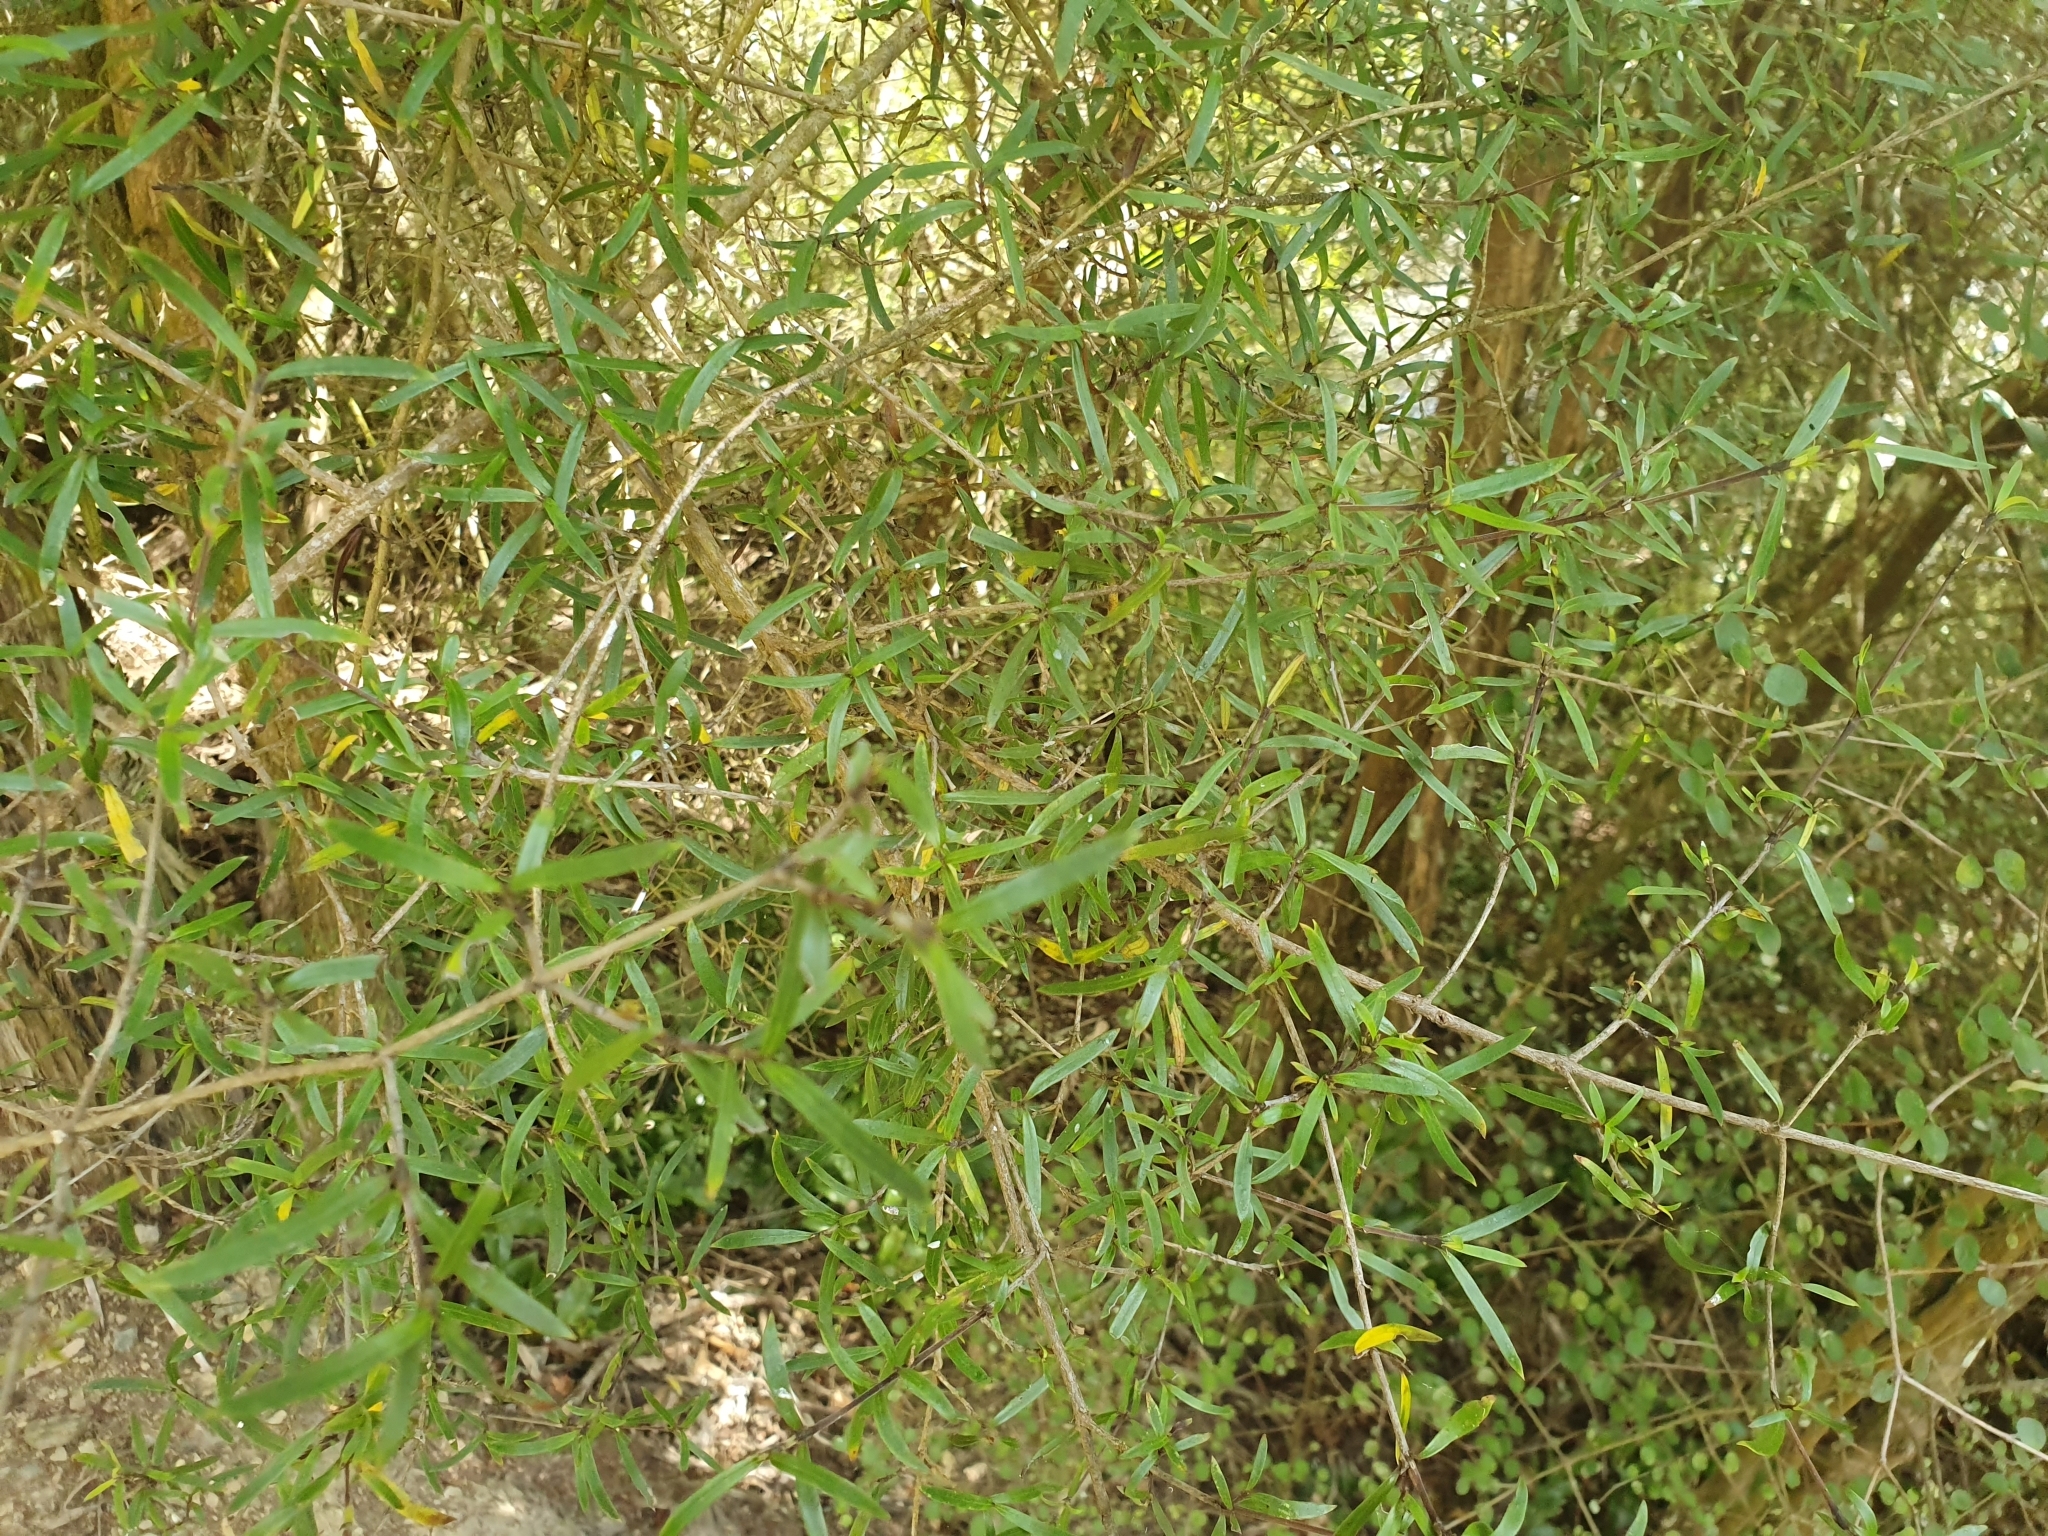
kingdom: Plantae
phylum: Tracheophyta
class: Magnoliopsida
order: Gentianales
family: Rubiaceae
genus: Coprosma
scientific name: Coprosma linariifolia
